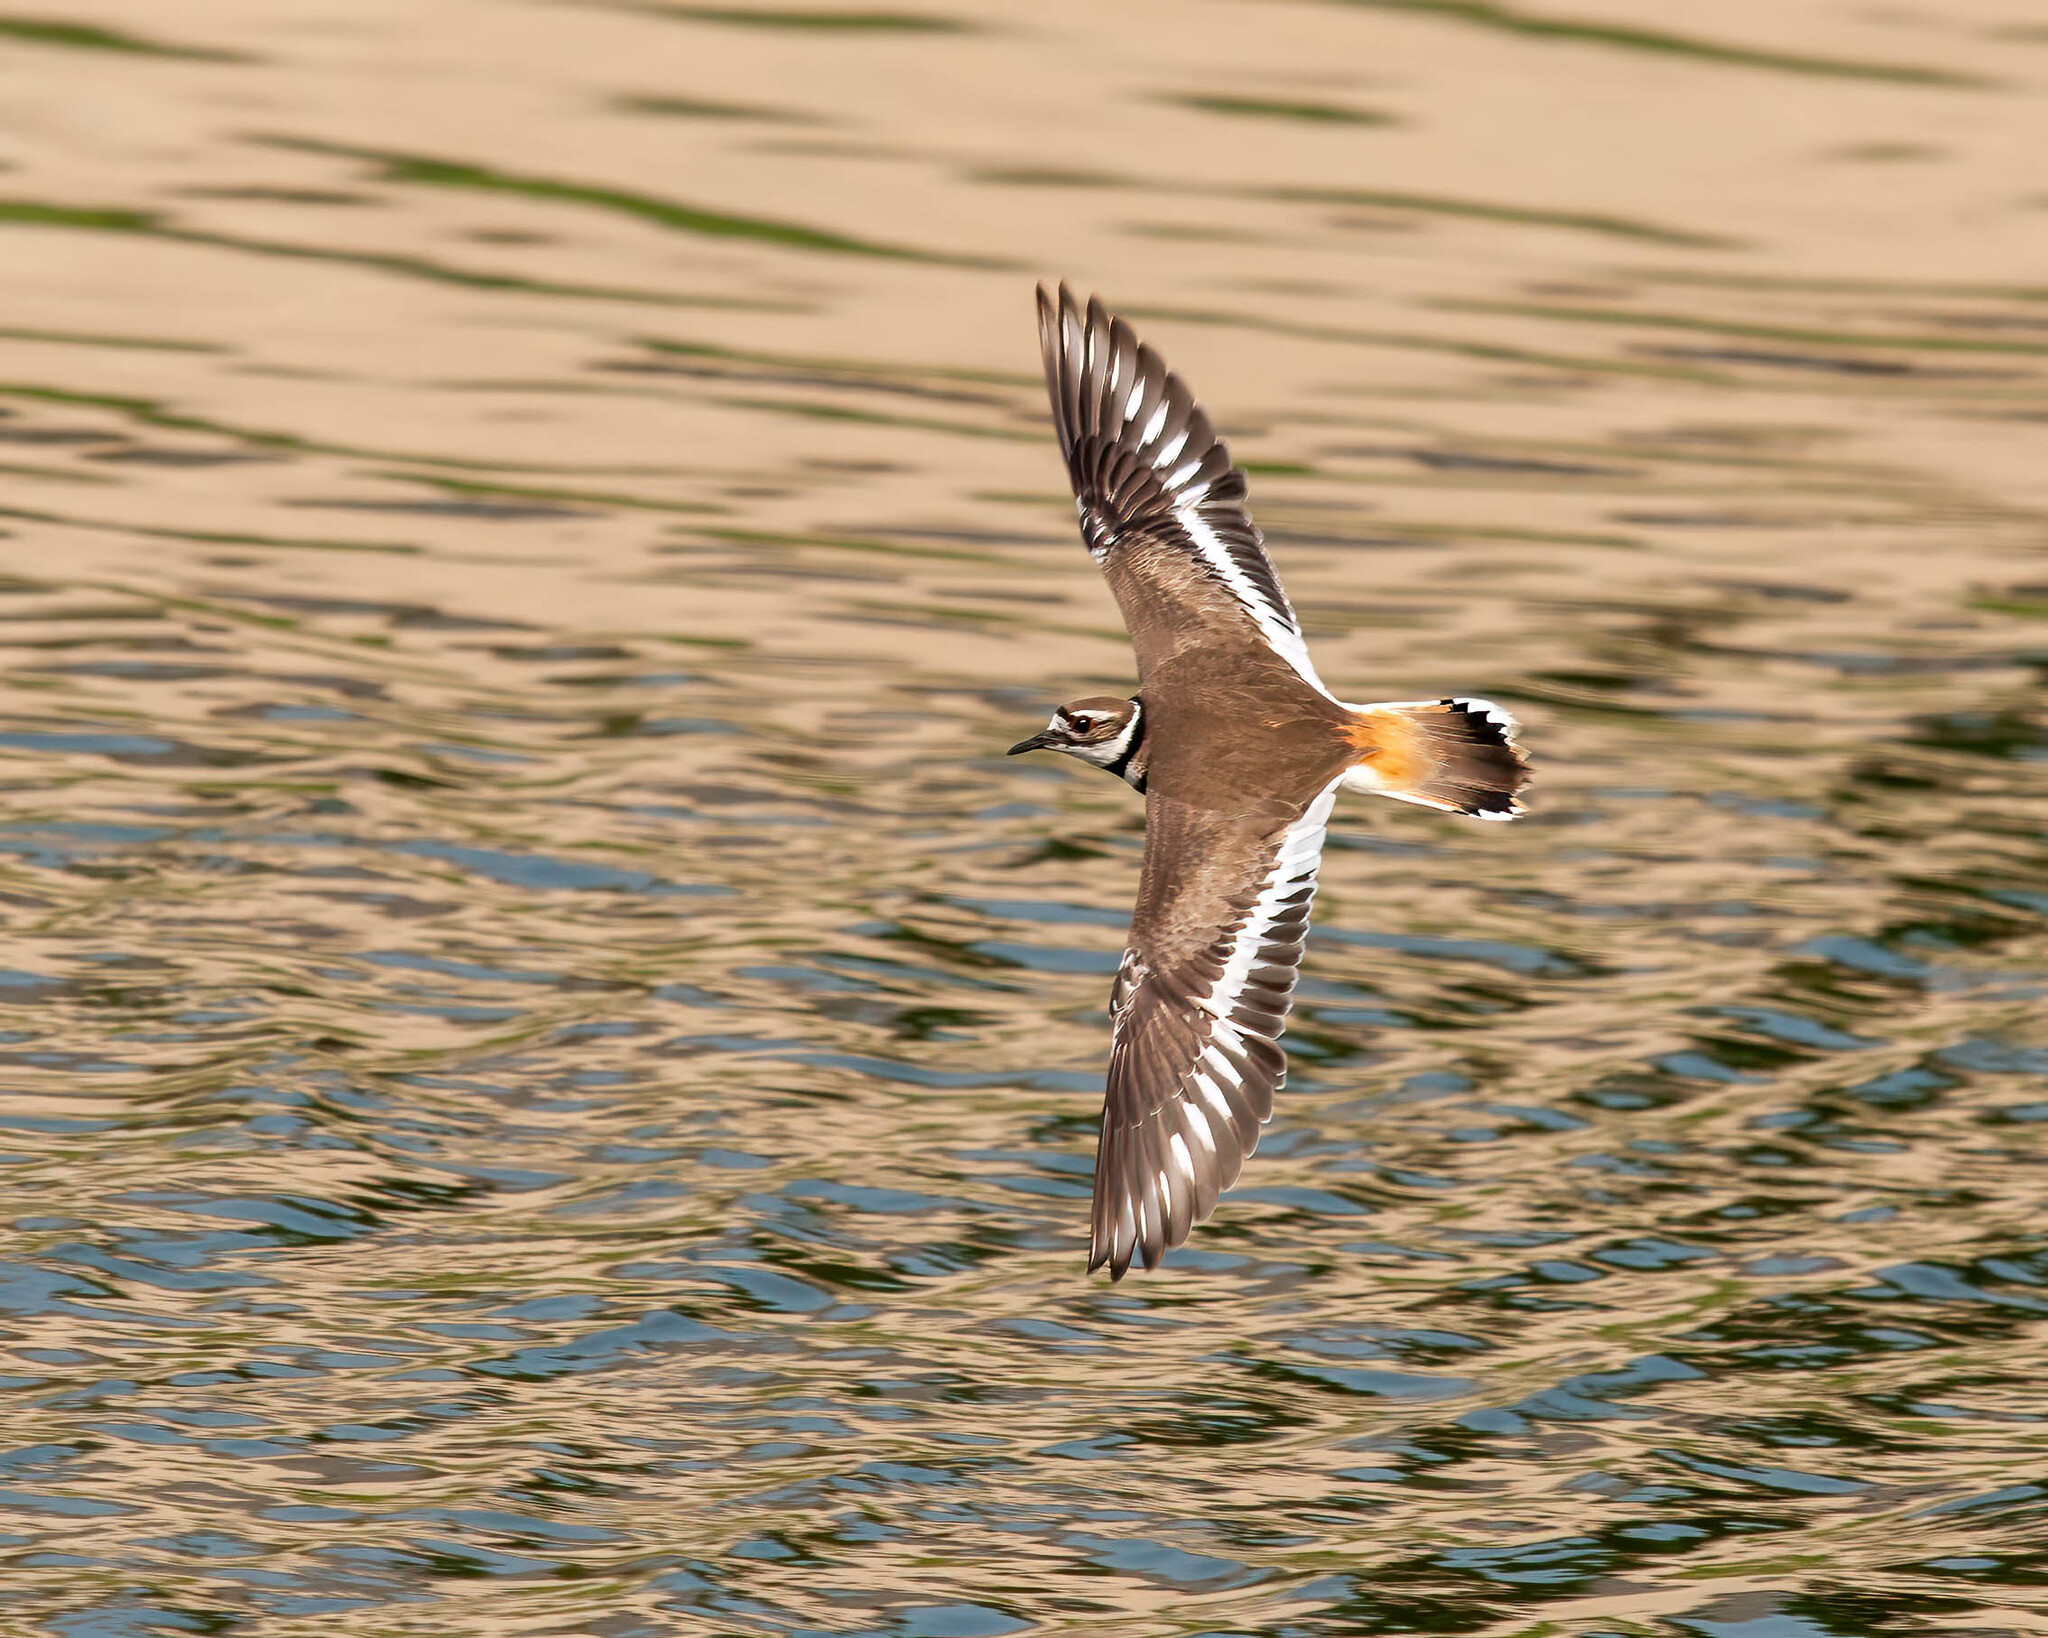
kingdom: Animalia
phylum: Chordata
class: Aves
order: Charadriiformes
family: Charadriidae
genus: Charadrius
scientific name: Charadrius vociferus
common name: Killdeer
